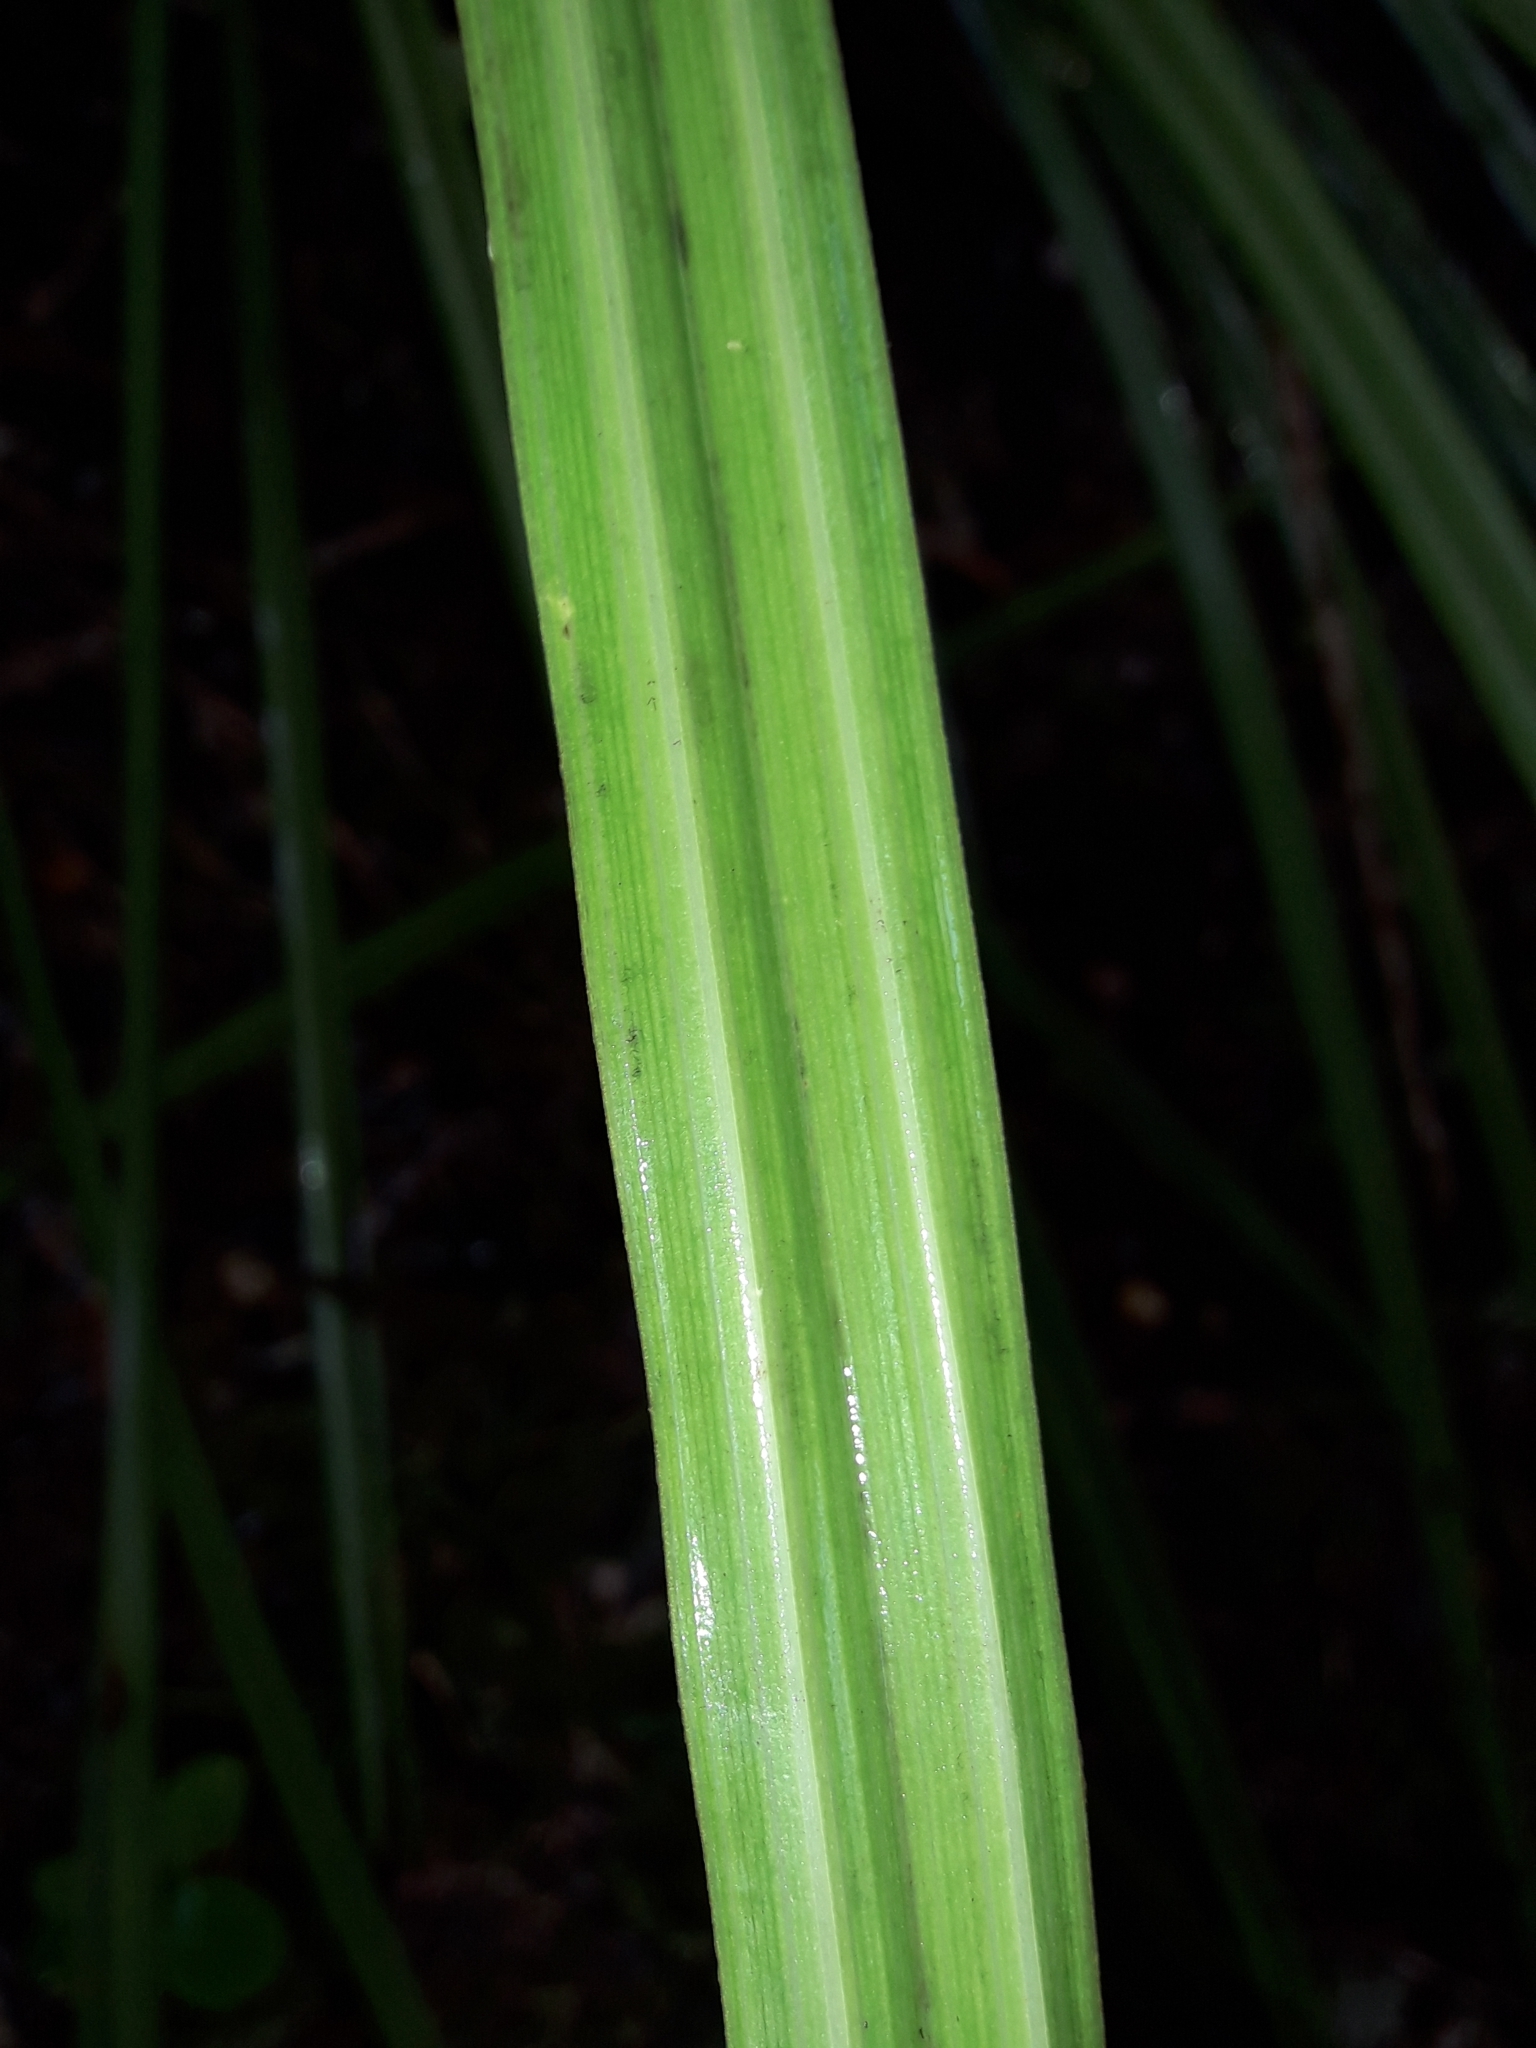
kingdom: Plantae
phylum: Tracheophyta
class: Liliopsida
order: Asparagales
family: Asteliaceae
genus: Astelia
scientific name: Astelia trinervia
